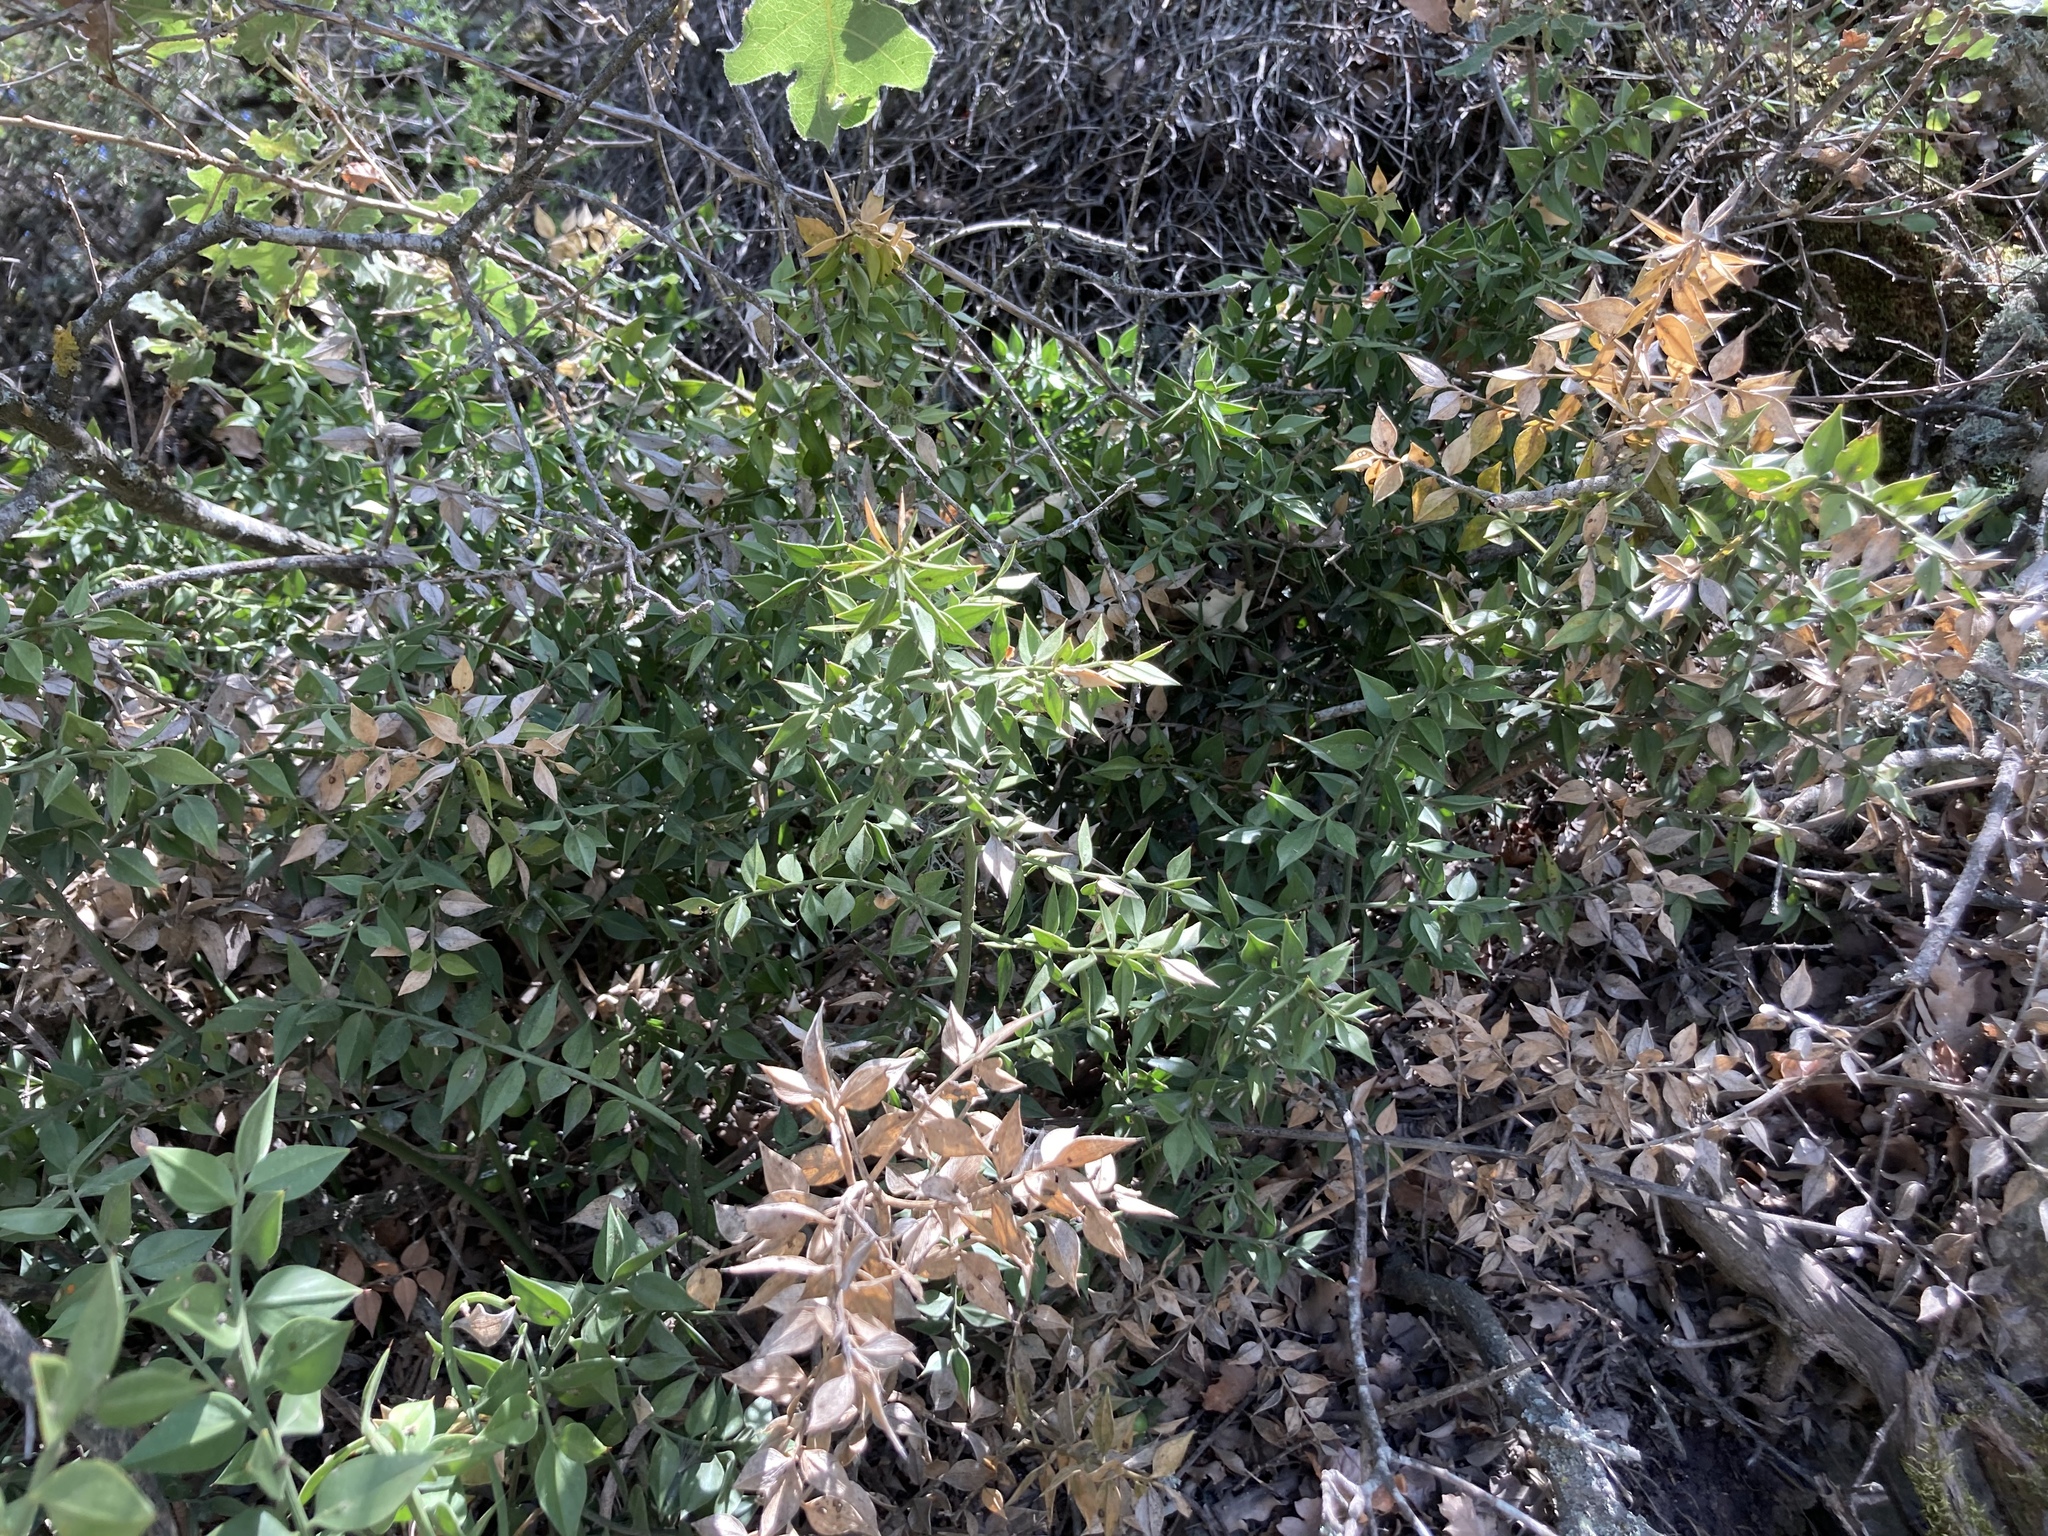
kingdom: Plantae
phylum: Tracheophyta
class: Liliopsida
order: Asparagales
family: Asparagaceae
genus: Ruscus
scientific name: Ruscus aculeatus
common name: Butcher's-broom
